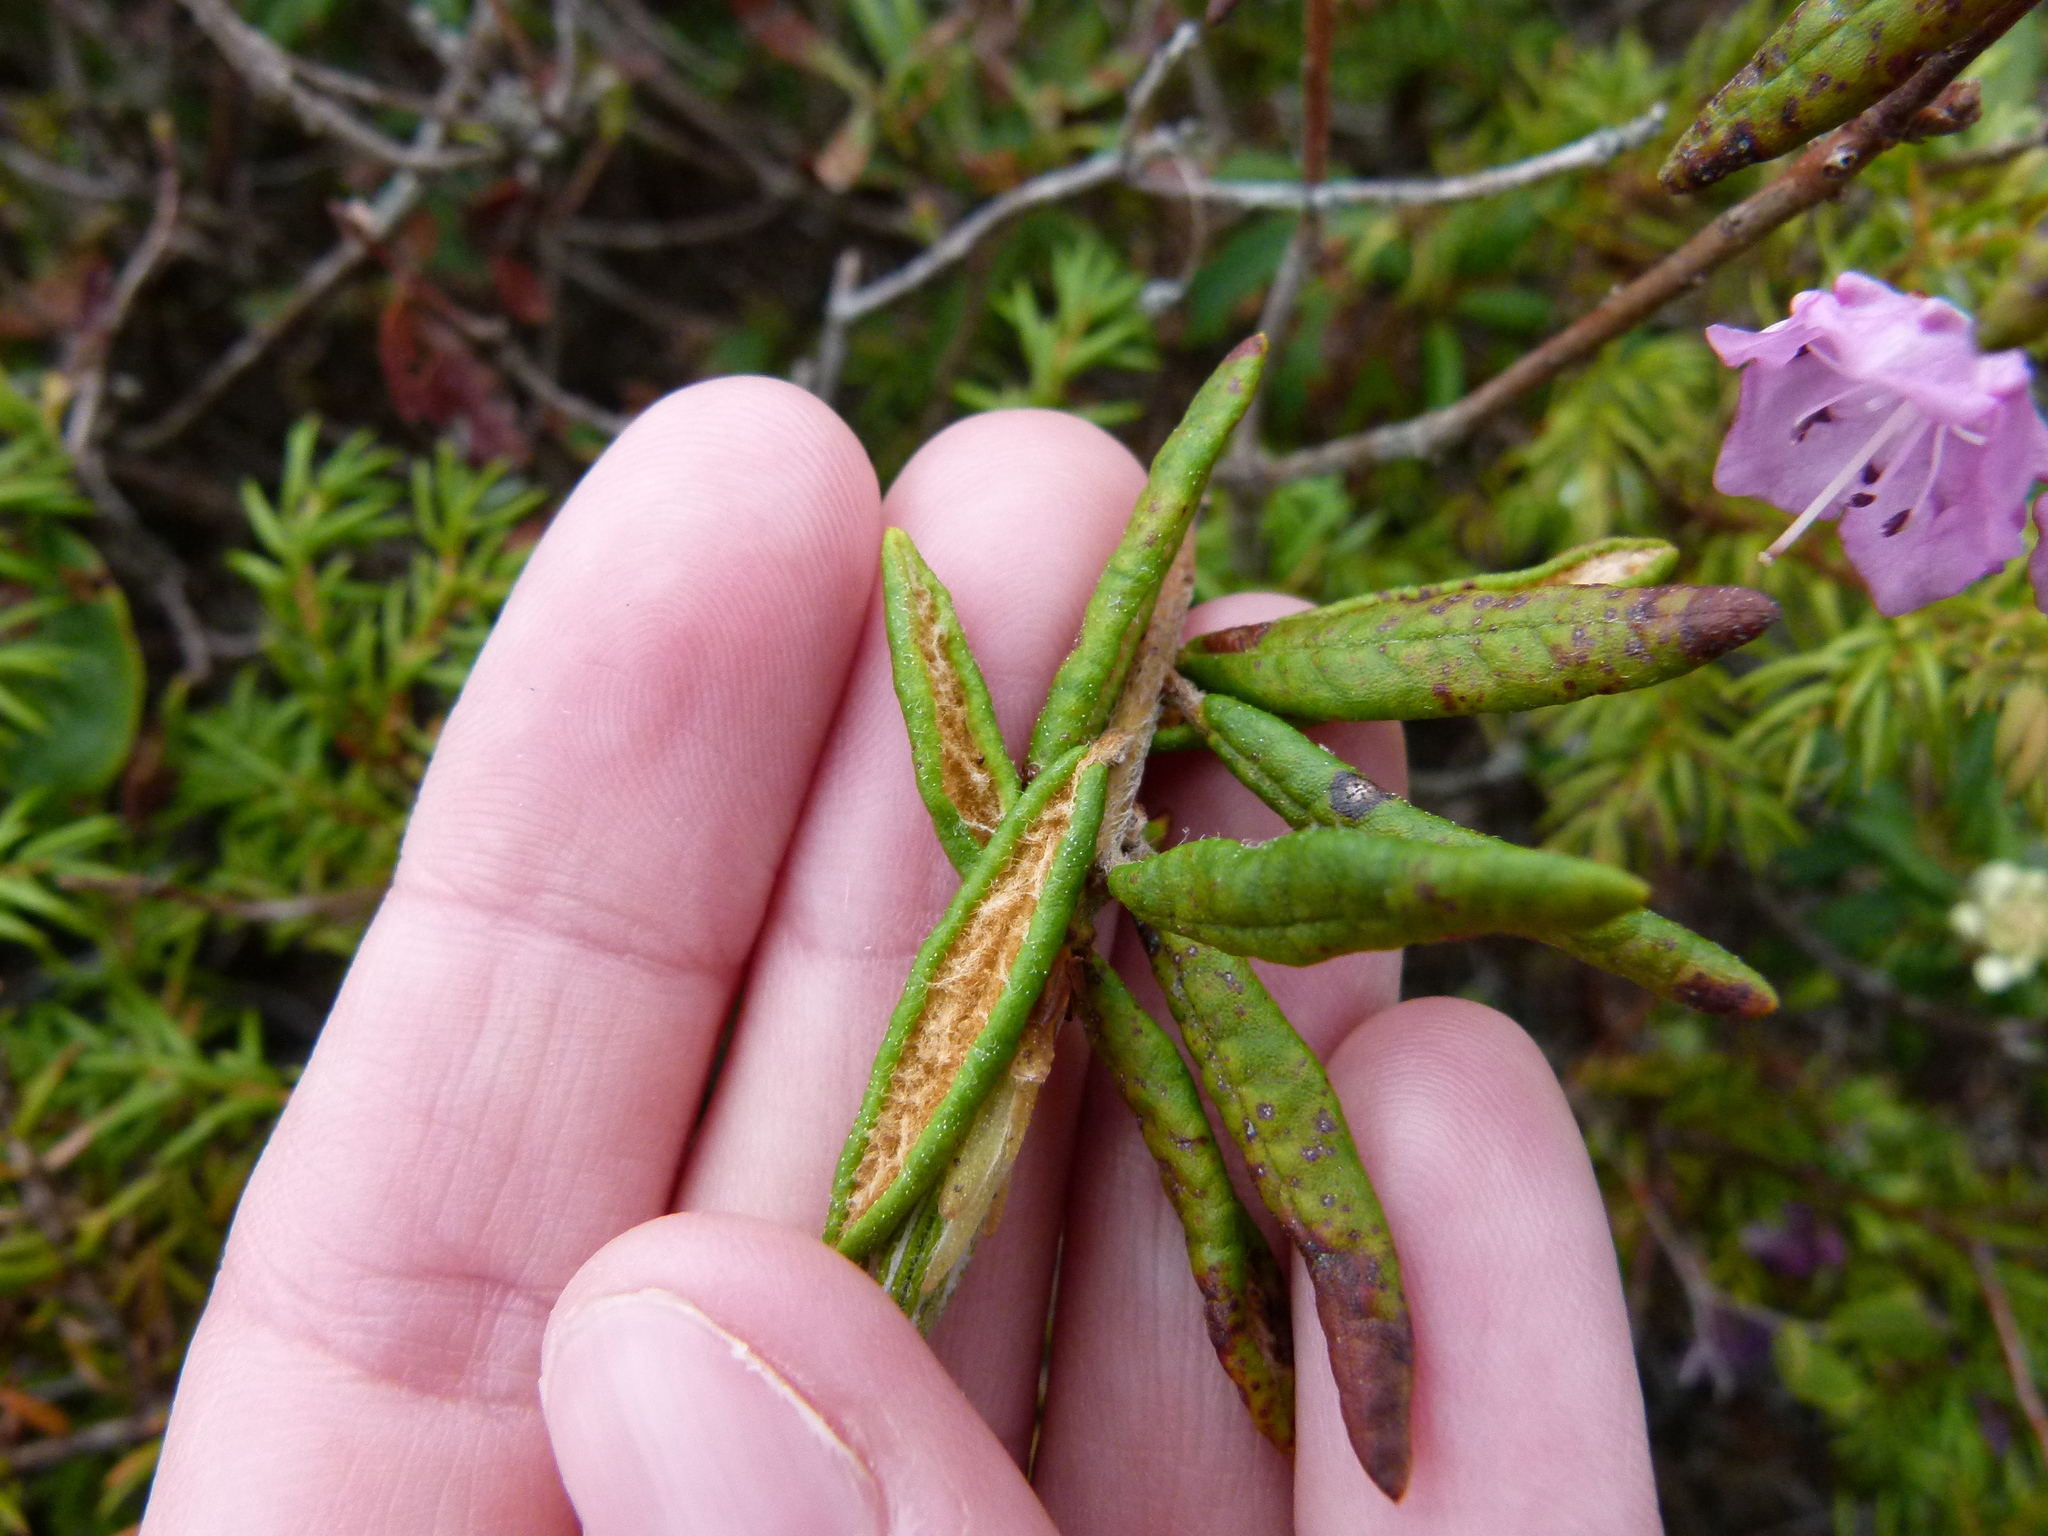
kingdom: Plantae
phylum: Tracheophyta
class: Magnoliopsida
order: Ericales
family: Ericaceae
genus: Kalmia
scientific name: Kalmia polifolia
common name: Bog-laurel
